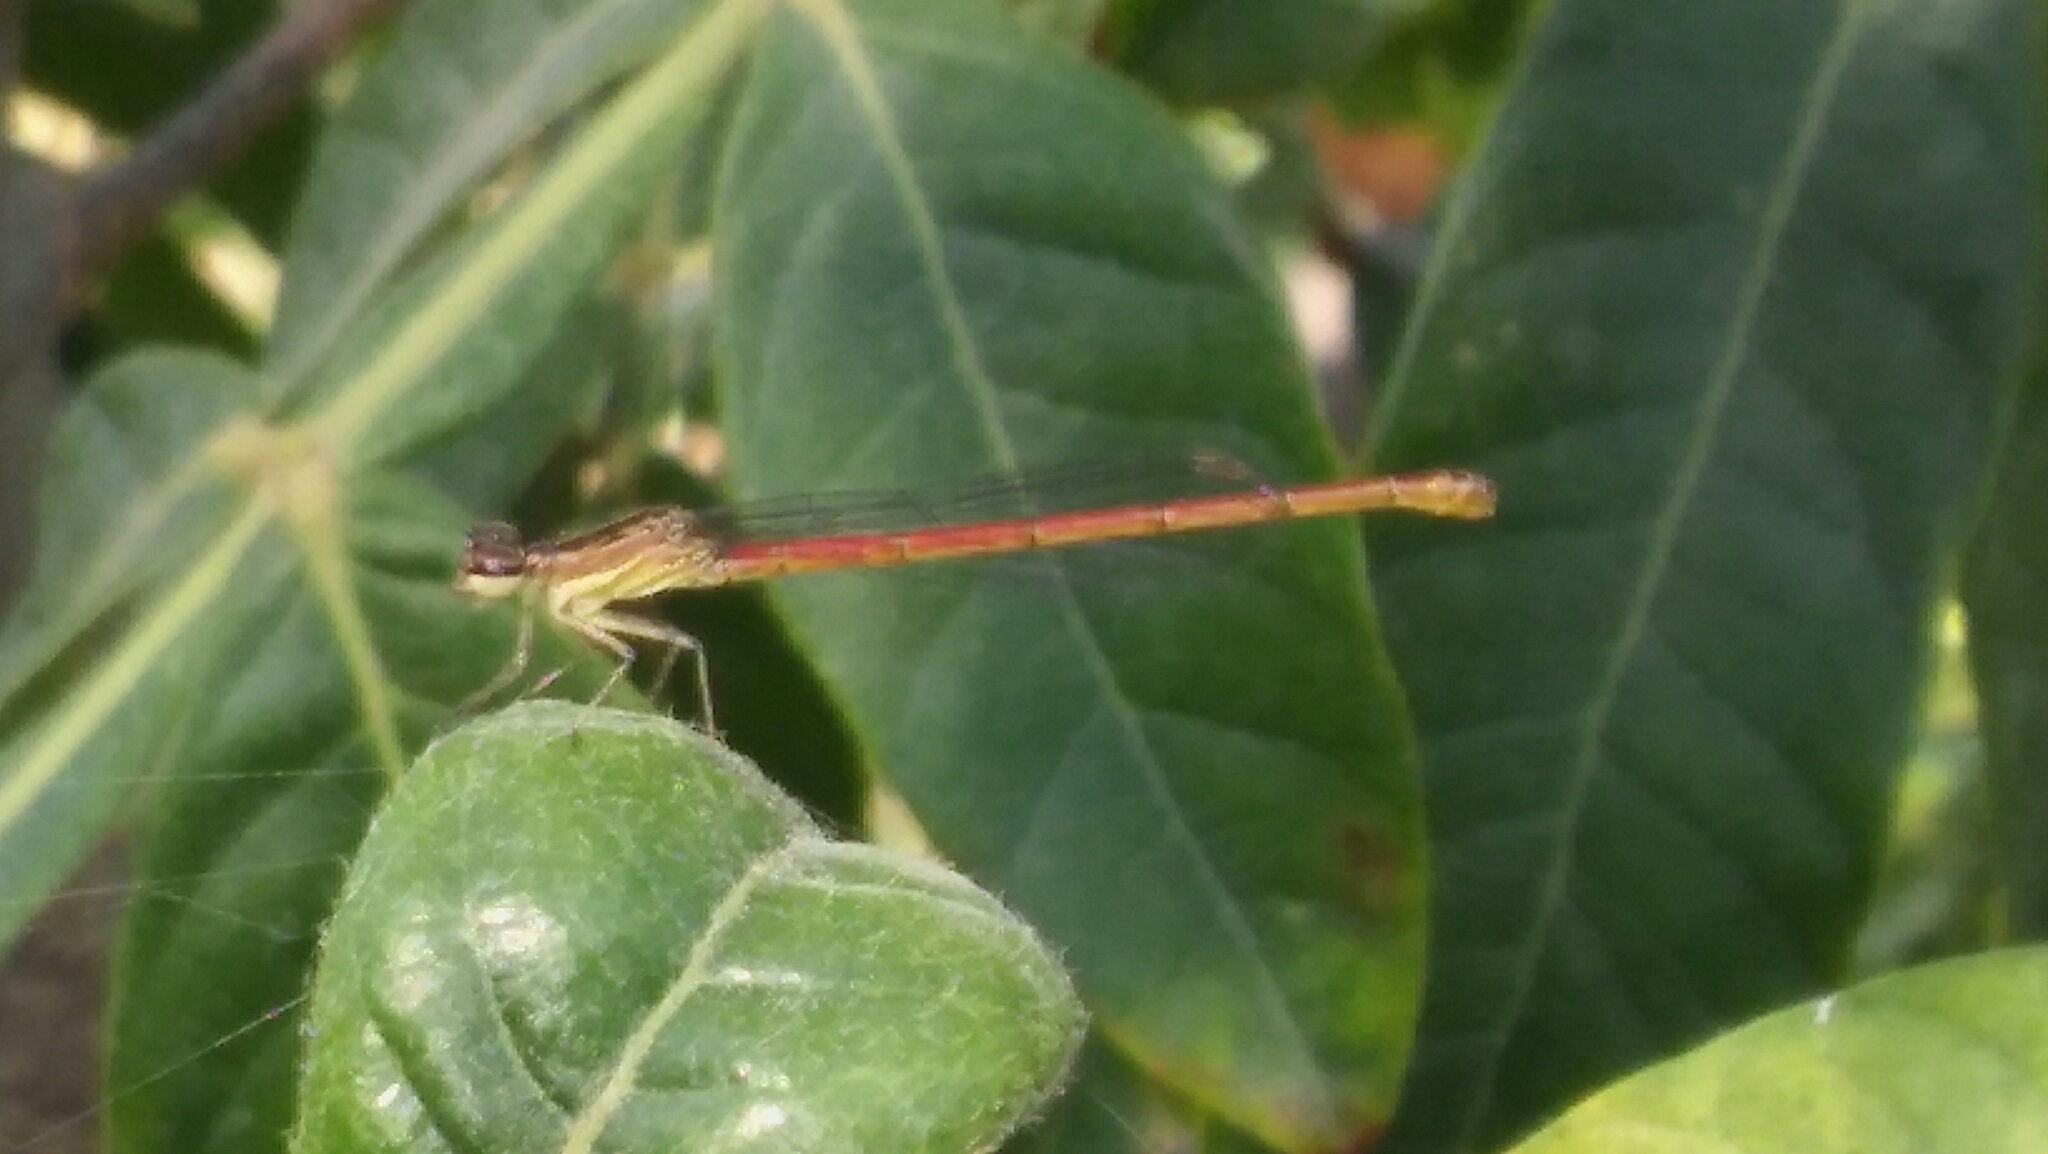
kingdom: Animalia
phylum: Arthropoda
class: Insecta
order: Odonata
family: Coenagrionidae
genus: Telebasis
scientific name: Telebasis willinki
